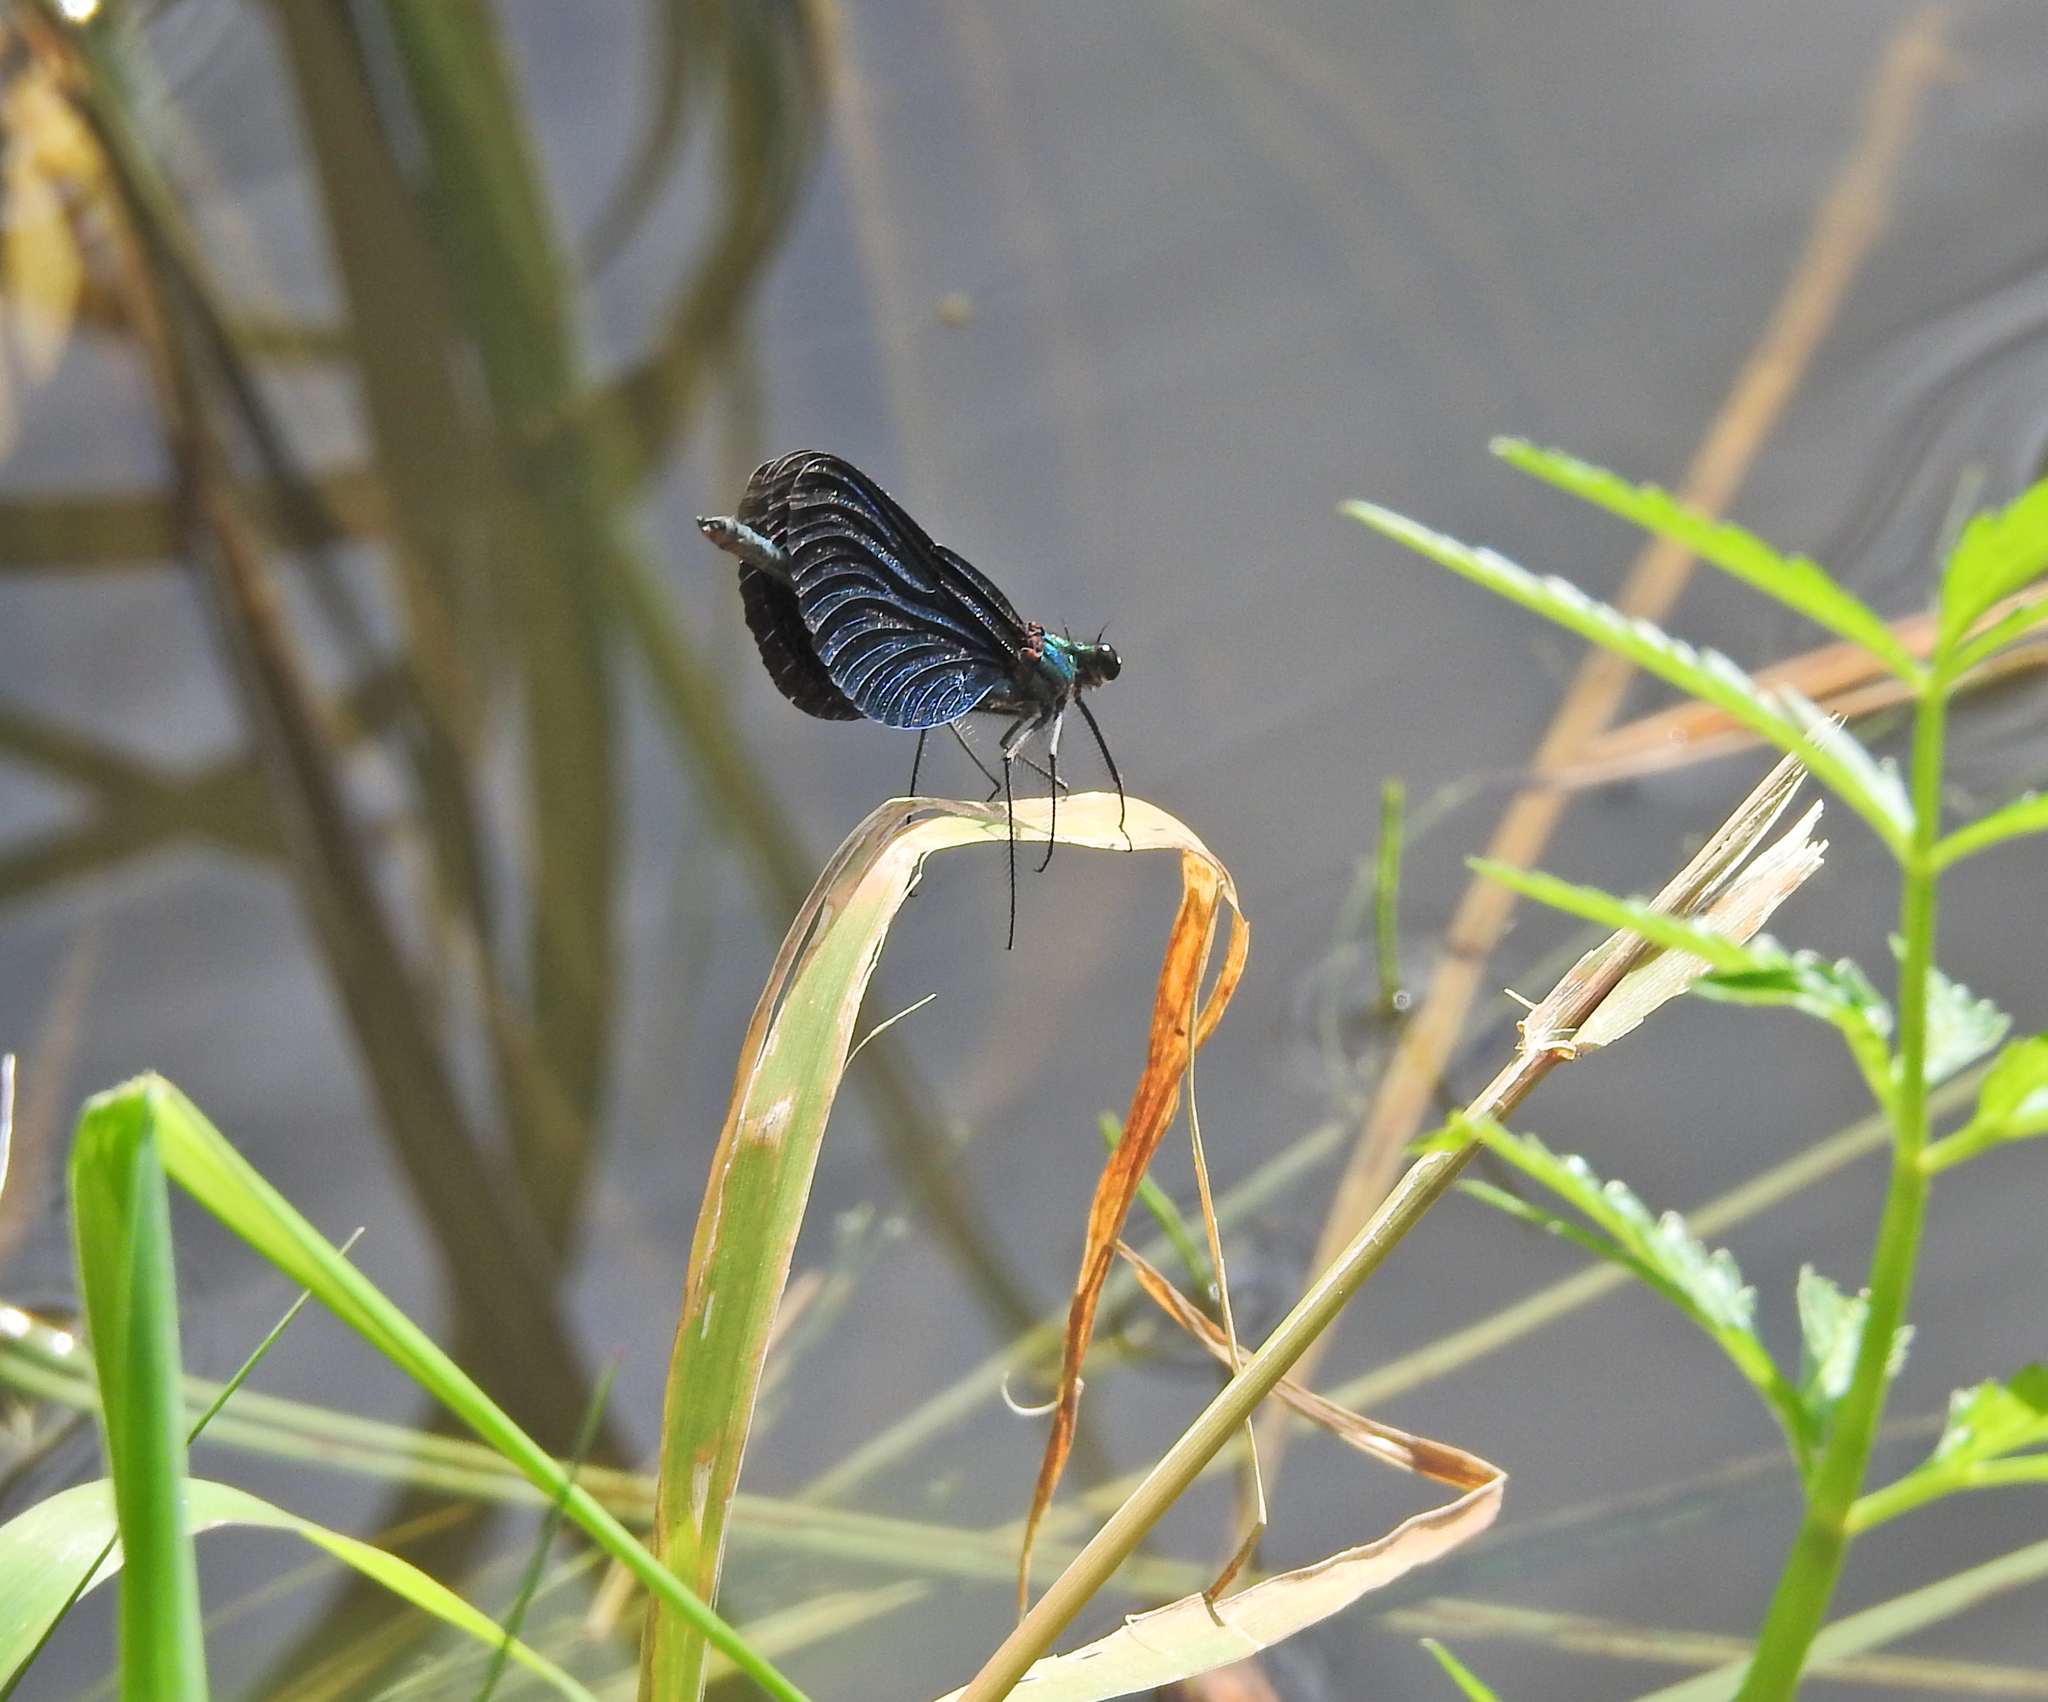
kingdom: Animalia
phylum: Arthropoda
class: Insecta
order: Odonata
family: Calopterygidae
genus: Calopteryx
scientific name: Calopteryx virgo
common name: Beautiful demoiselle
